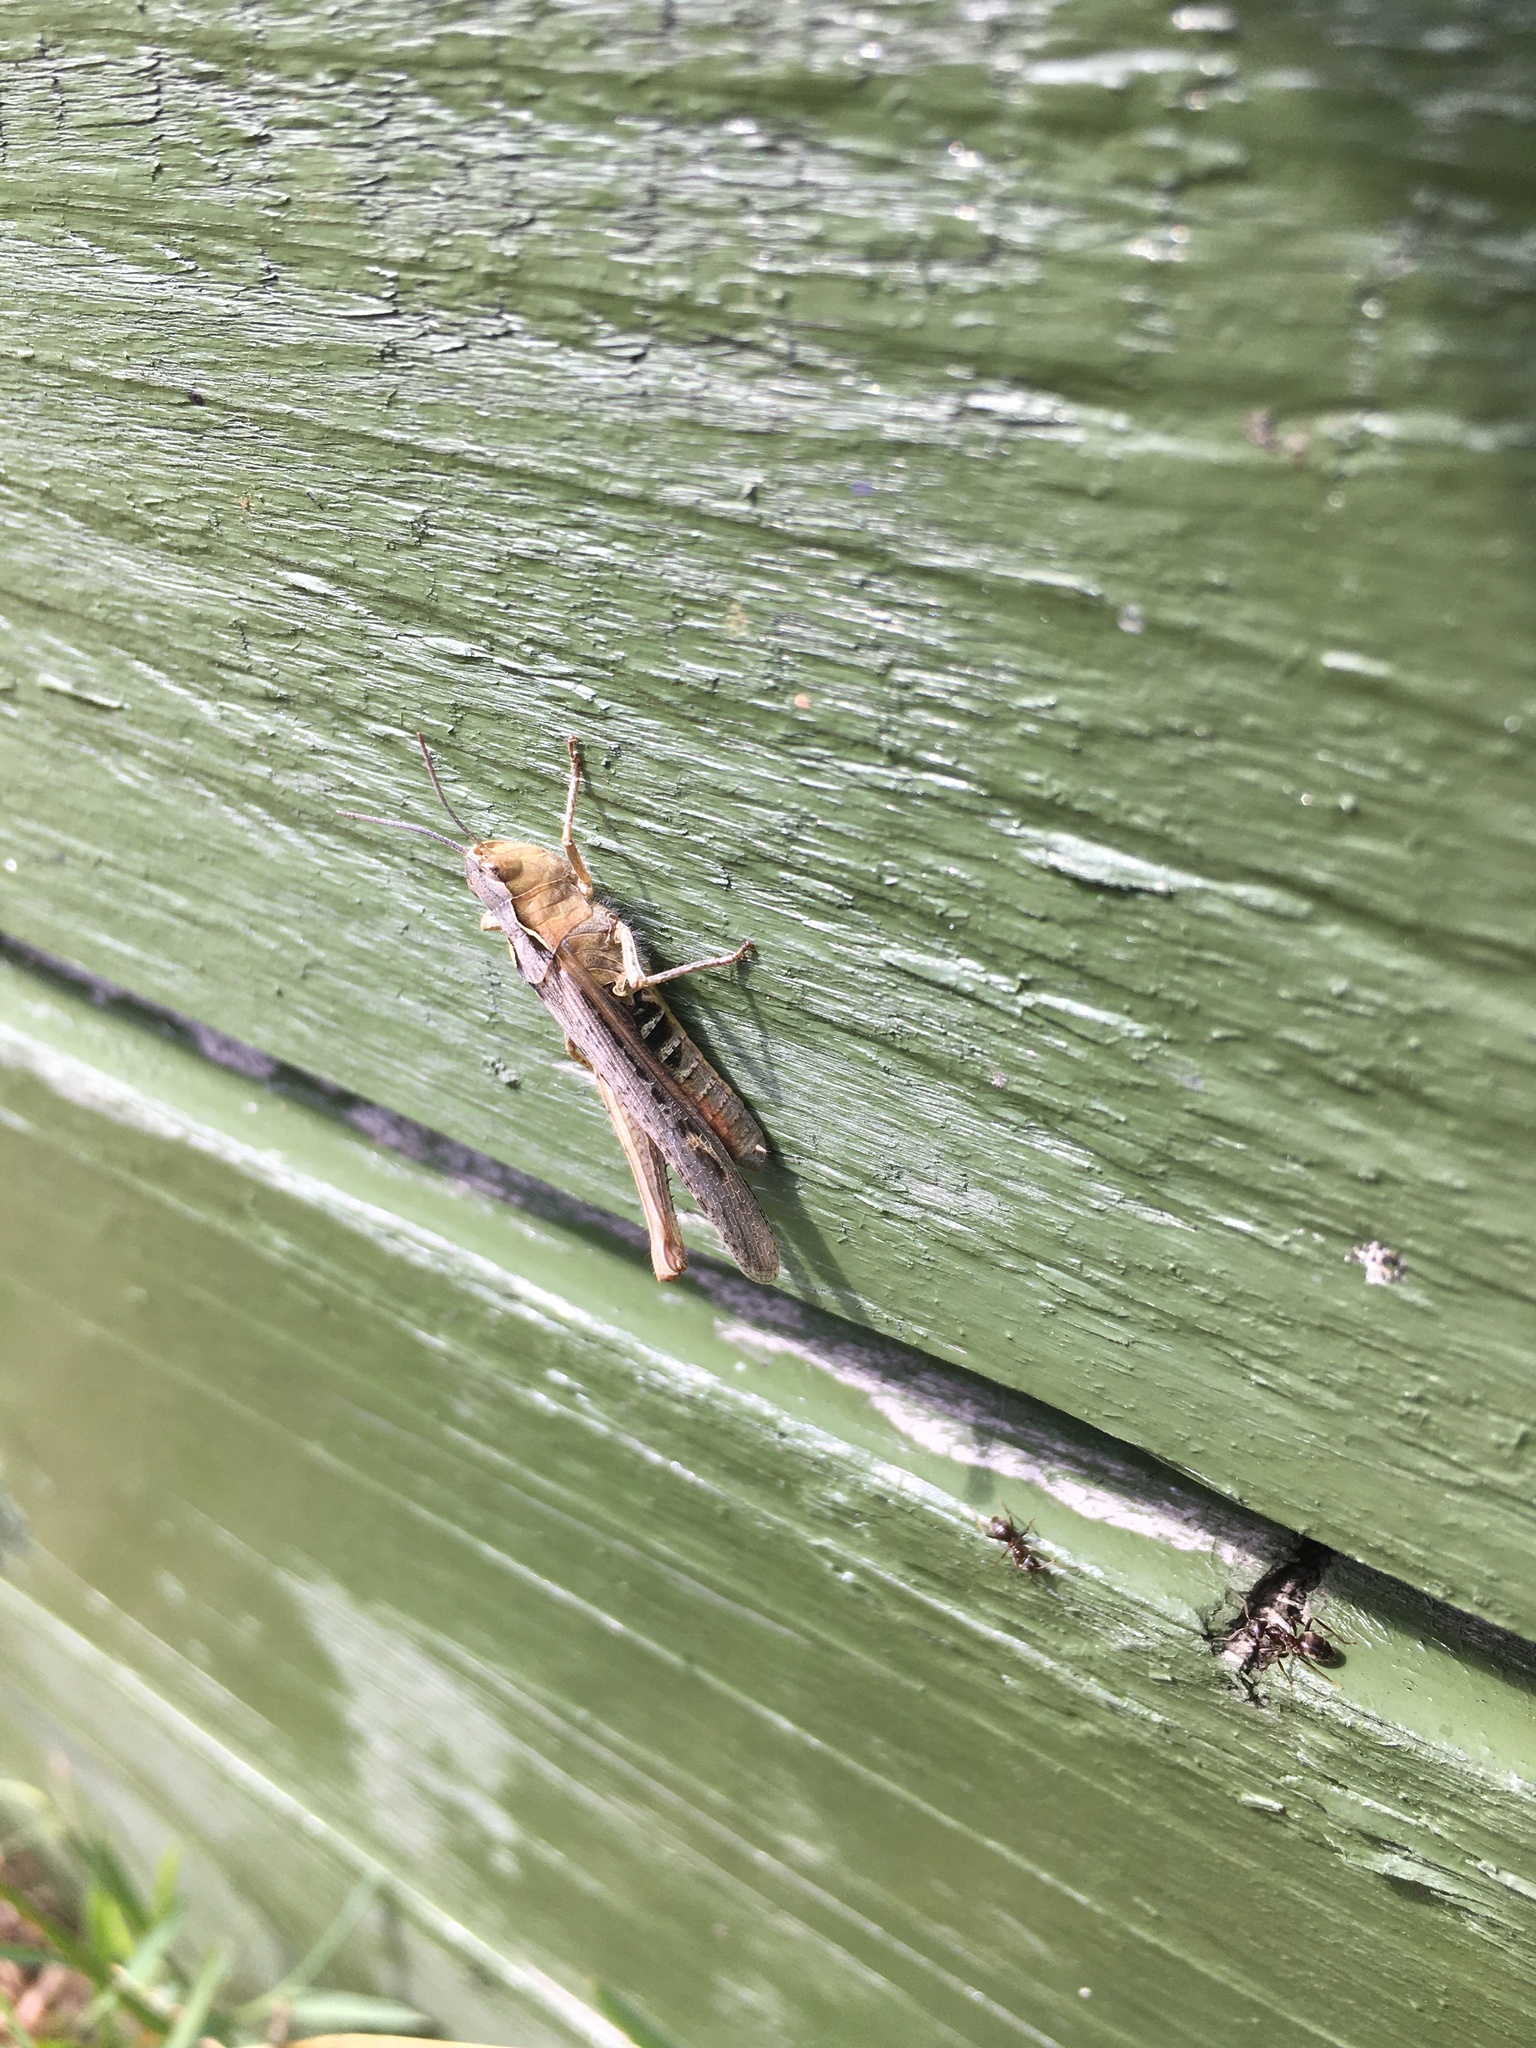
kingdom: Animalia
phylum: Arthropoda
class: Insecta
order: Orthoptera
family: Acrididae
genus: Chorthippus
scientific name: Chorthippus brunneus
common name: Field grasshopper
